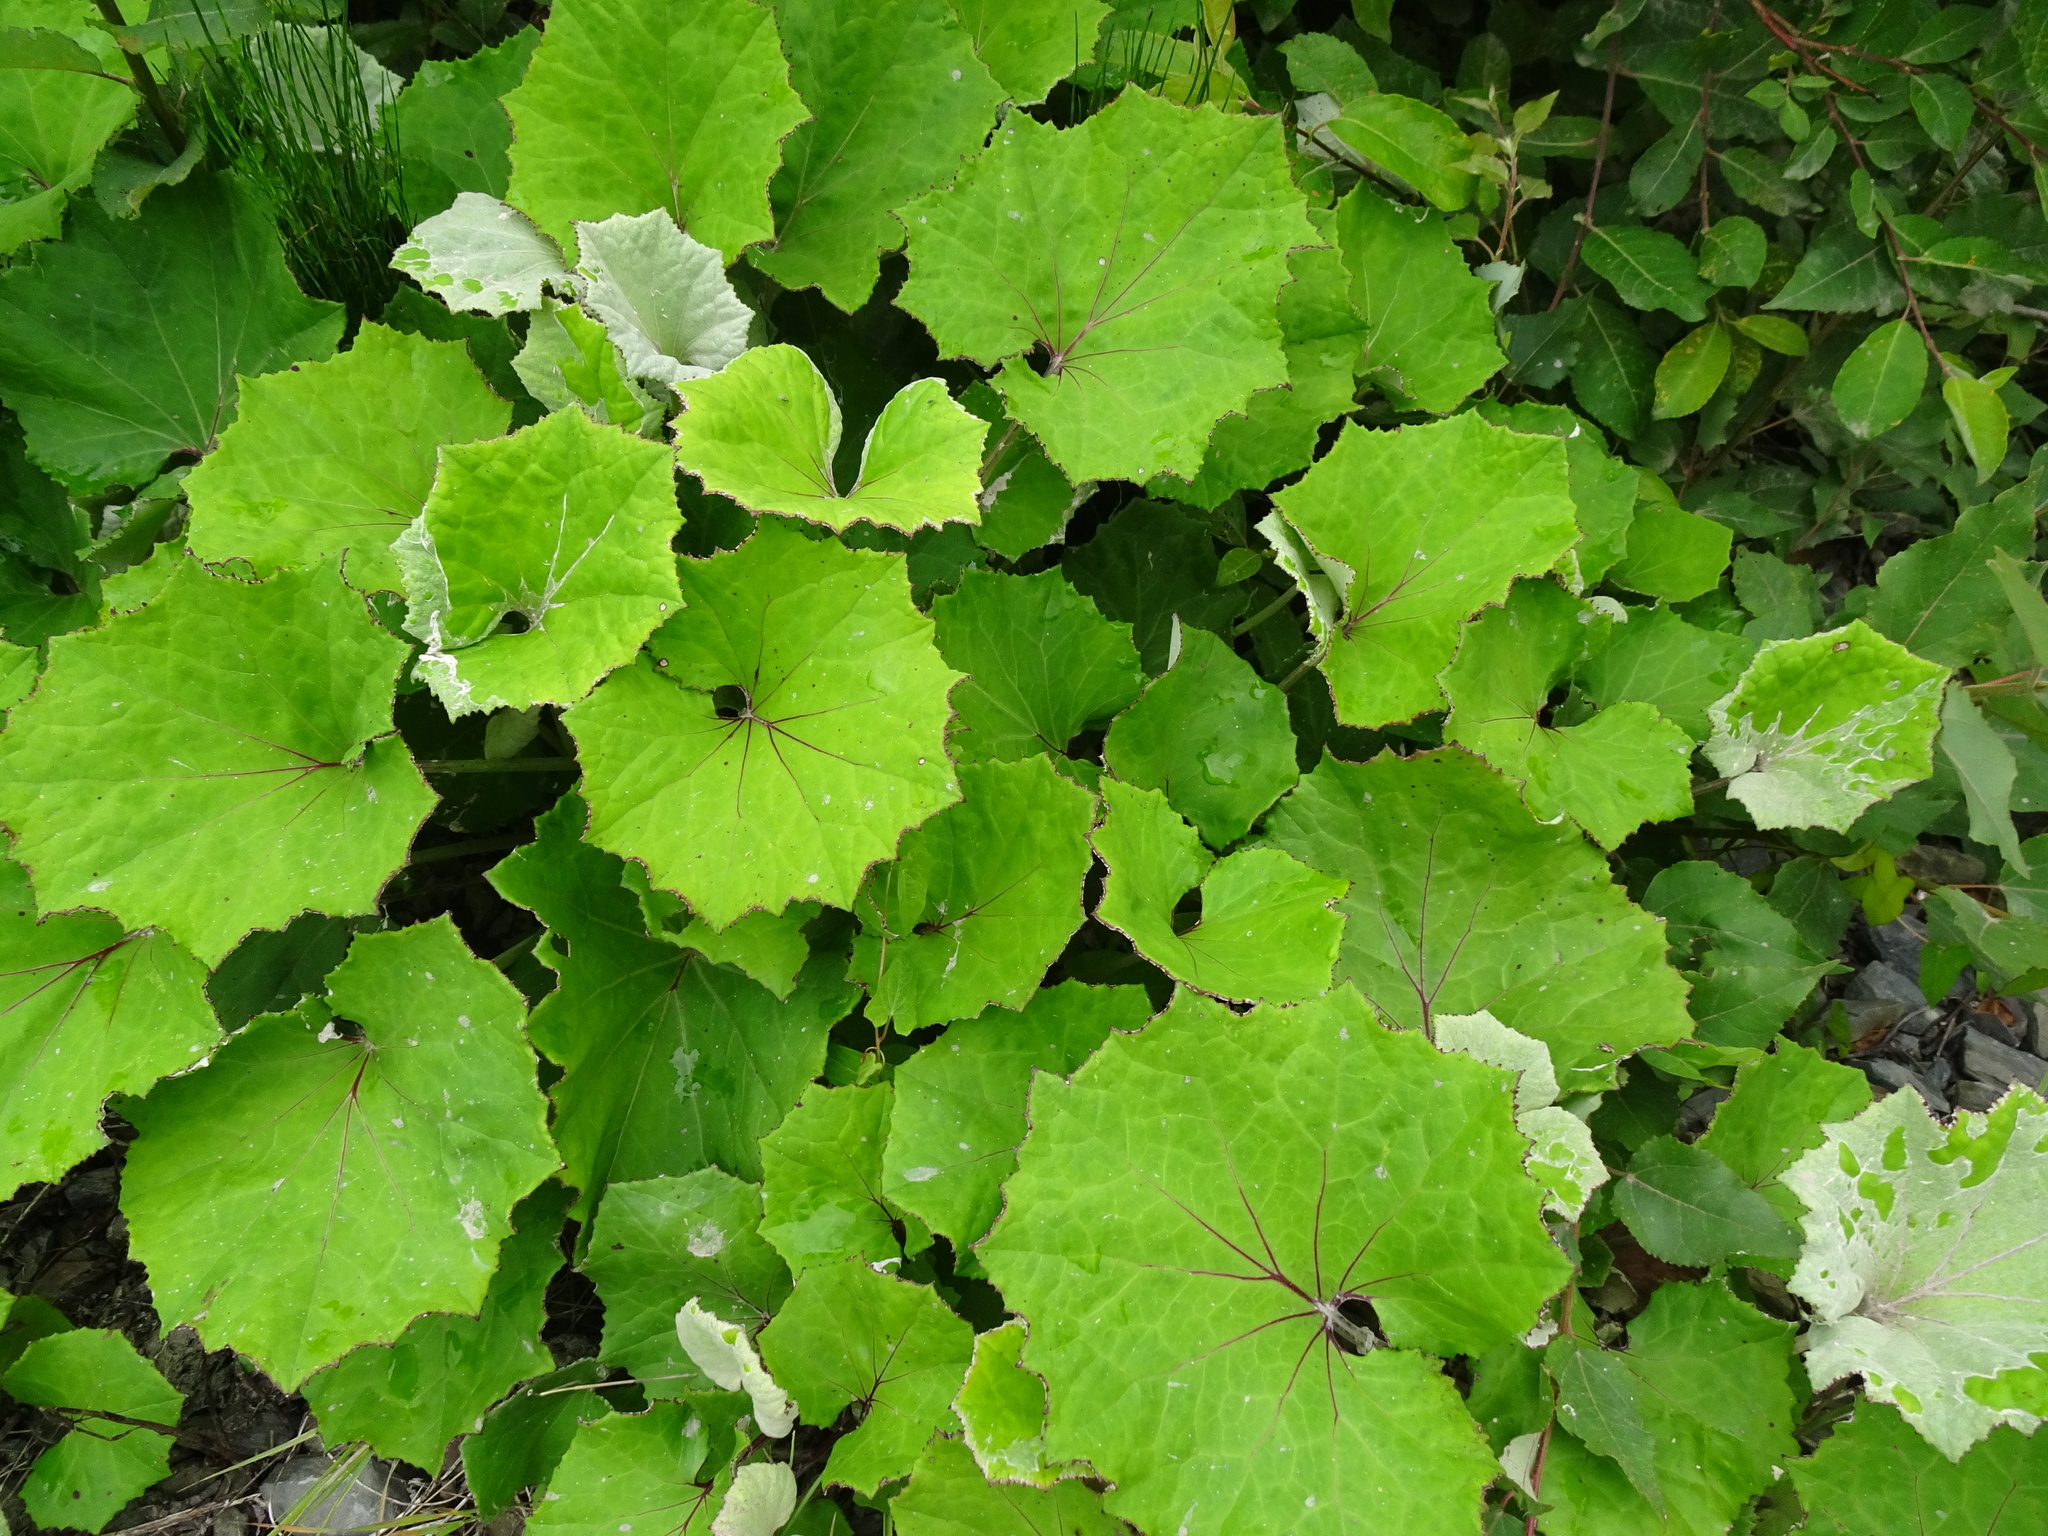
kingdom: Plantae
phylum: Tracheophyta
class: Magnoliopsida
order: Asterales
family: Asteraceae
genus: Tussilago
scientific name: Tussilago farfara
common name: Coltsfoot
